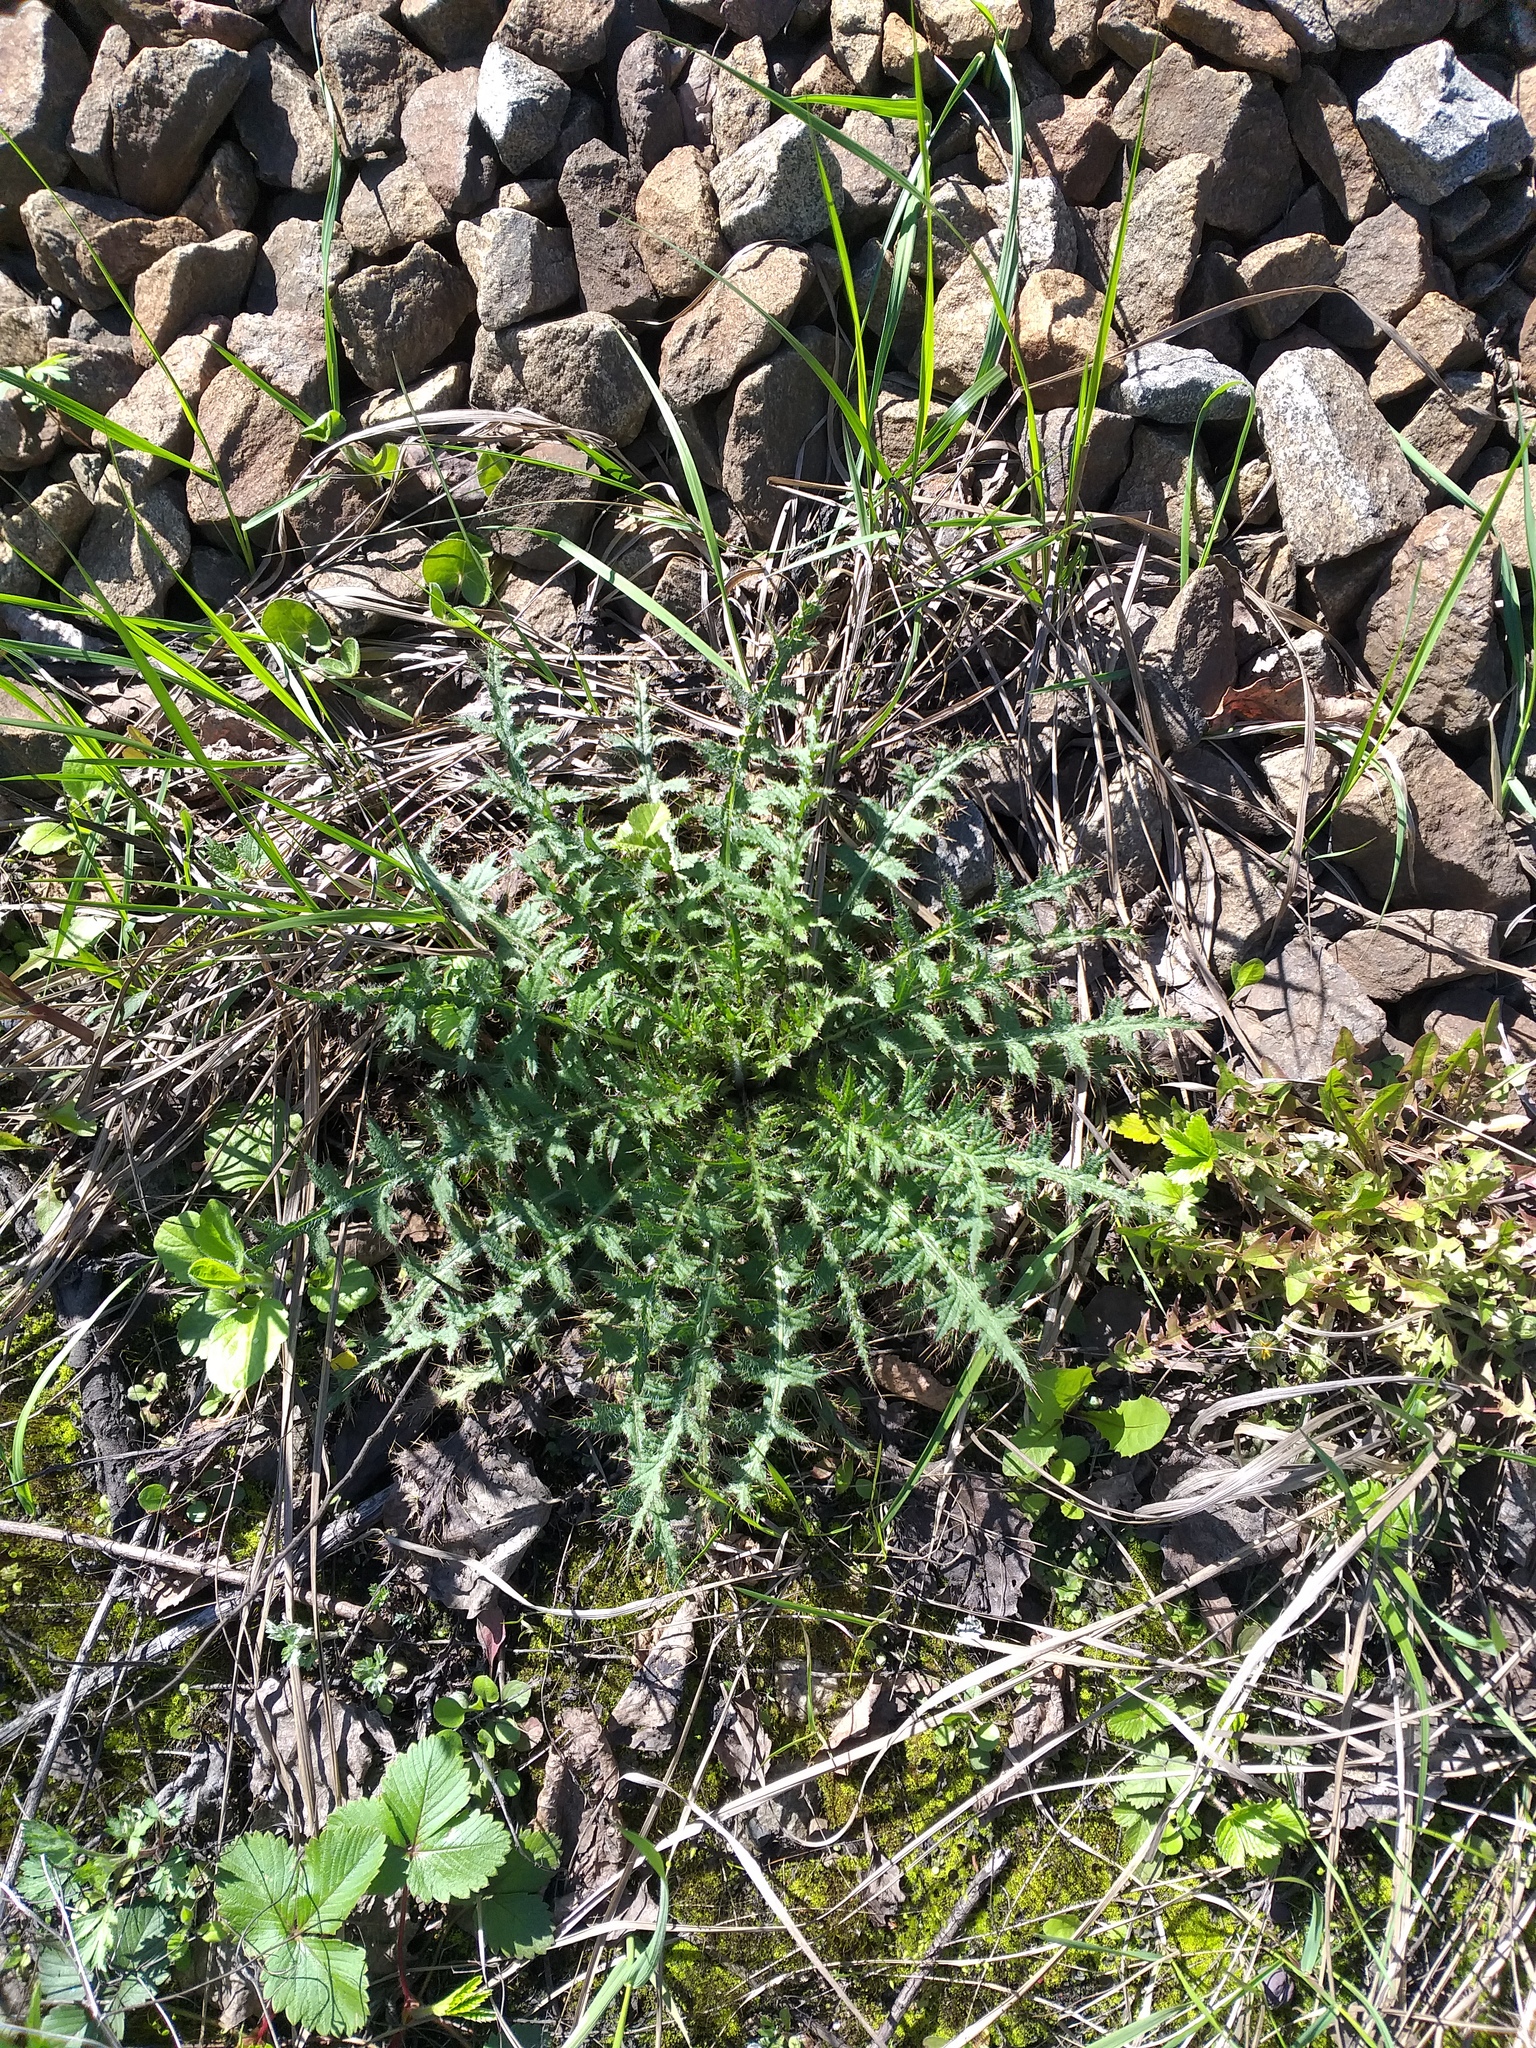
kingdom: Plantae
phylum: Tracheophyta
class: Magnoliopsida
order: Asterales
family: Asteraceae
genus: Cirsium
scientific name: Cirsium palustre
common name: Marsh thistle
